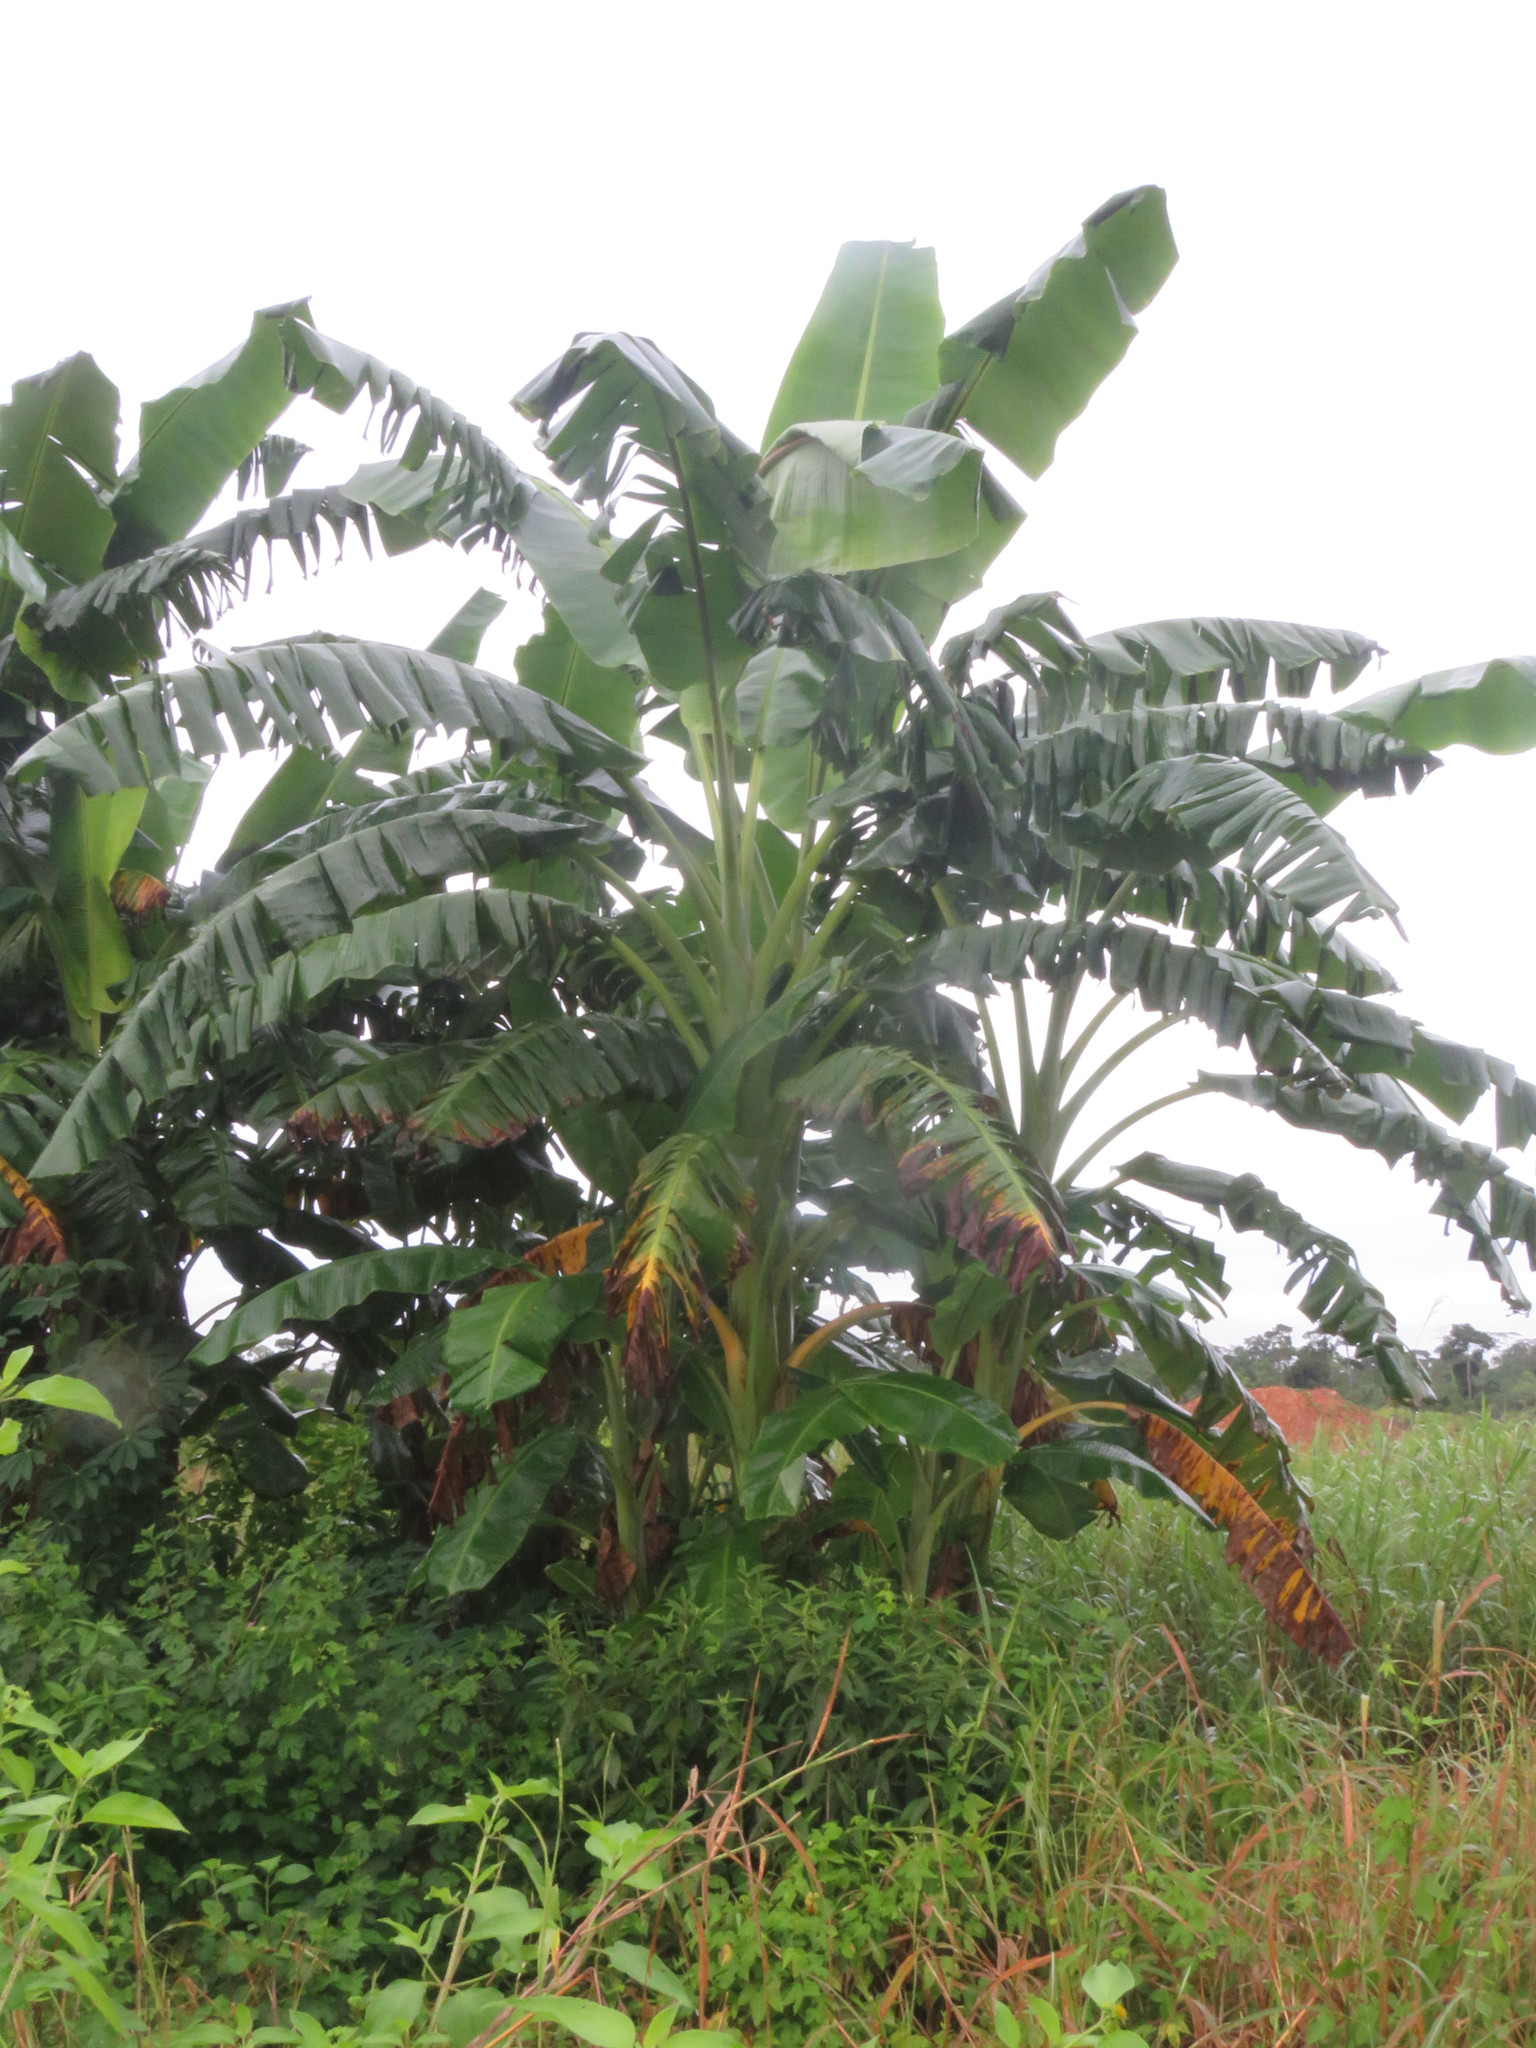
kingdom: Plantae
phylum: Tracheophyta
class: Liliopsida
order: Zingiberales
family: Musaceae
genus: Musa
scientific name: Musa paradisiaca
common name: French plantain
